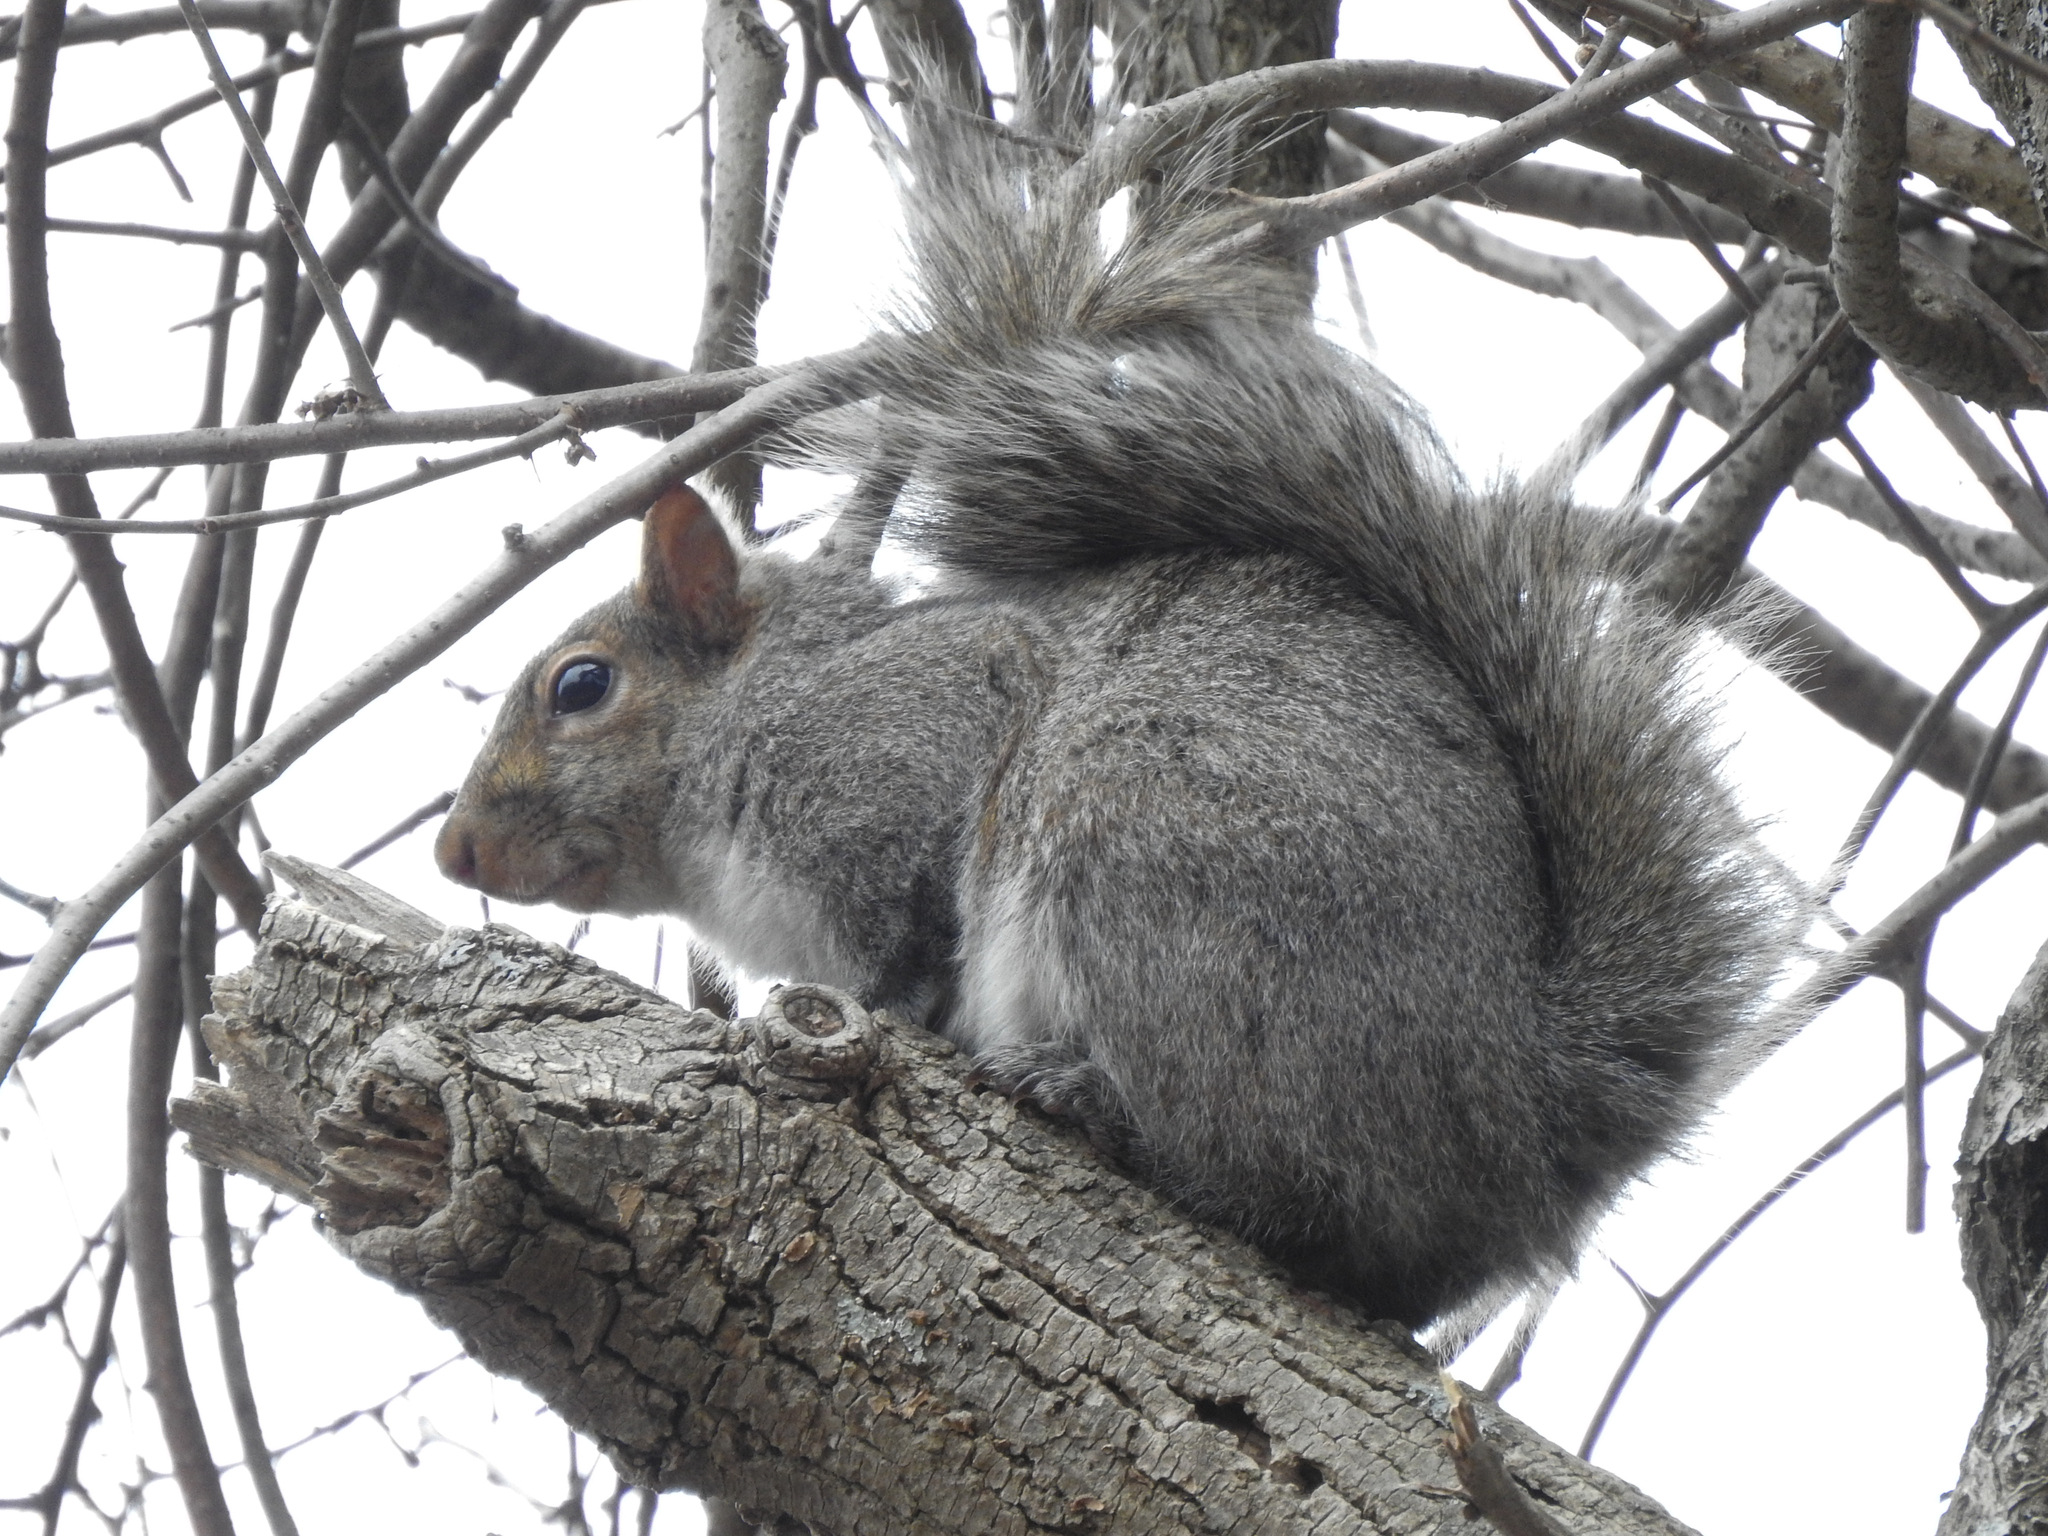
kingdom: Animalia
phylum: Chordata
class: Mammalia
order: Rodentia
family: Sciuridae
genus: Sciurus
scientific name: Sciurus carolinensis
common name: Eastern gray squirrel
